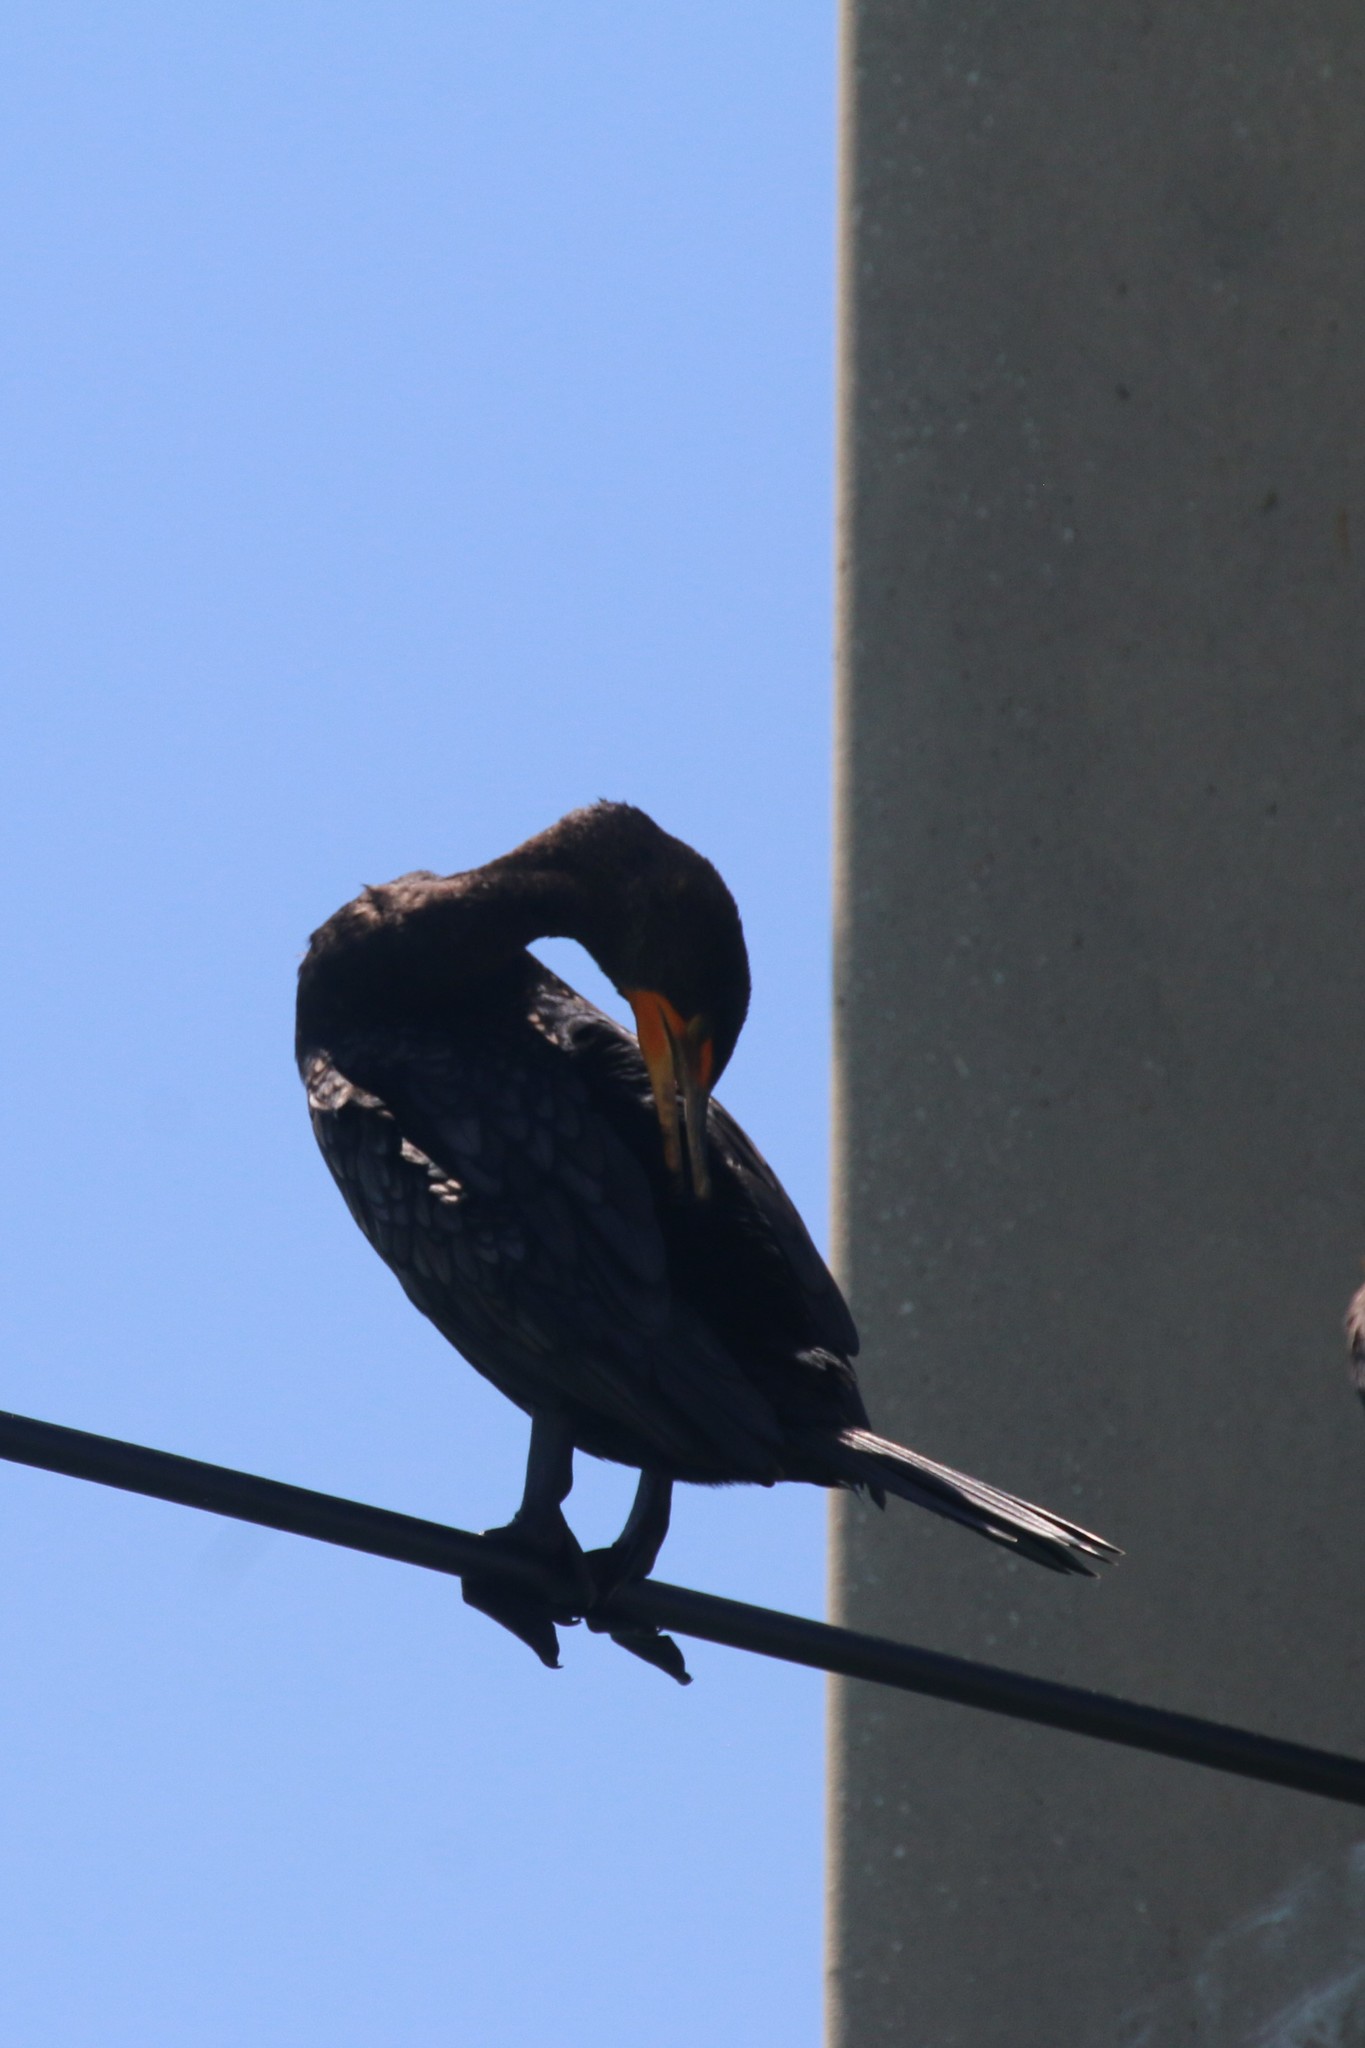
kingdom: Animalia
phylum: Chordata
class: Aves
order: Suliformes
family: Phalacrocoracidae
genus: Phalacrocorax
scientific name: Phalacrocorax auritus
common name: Double-crested cormorant
